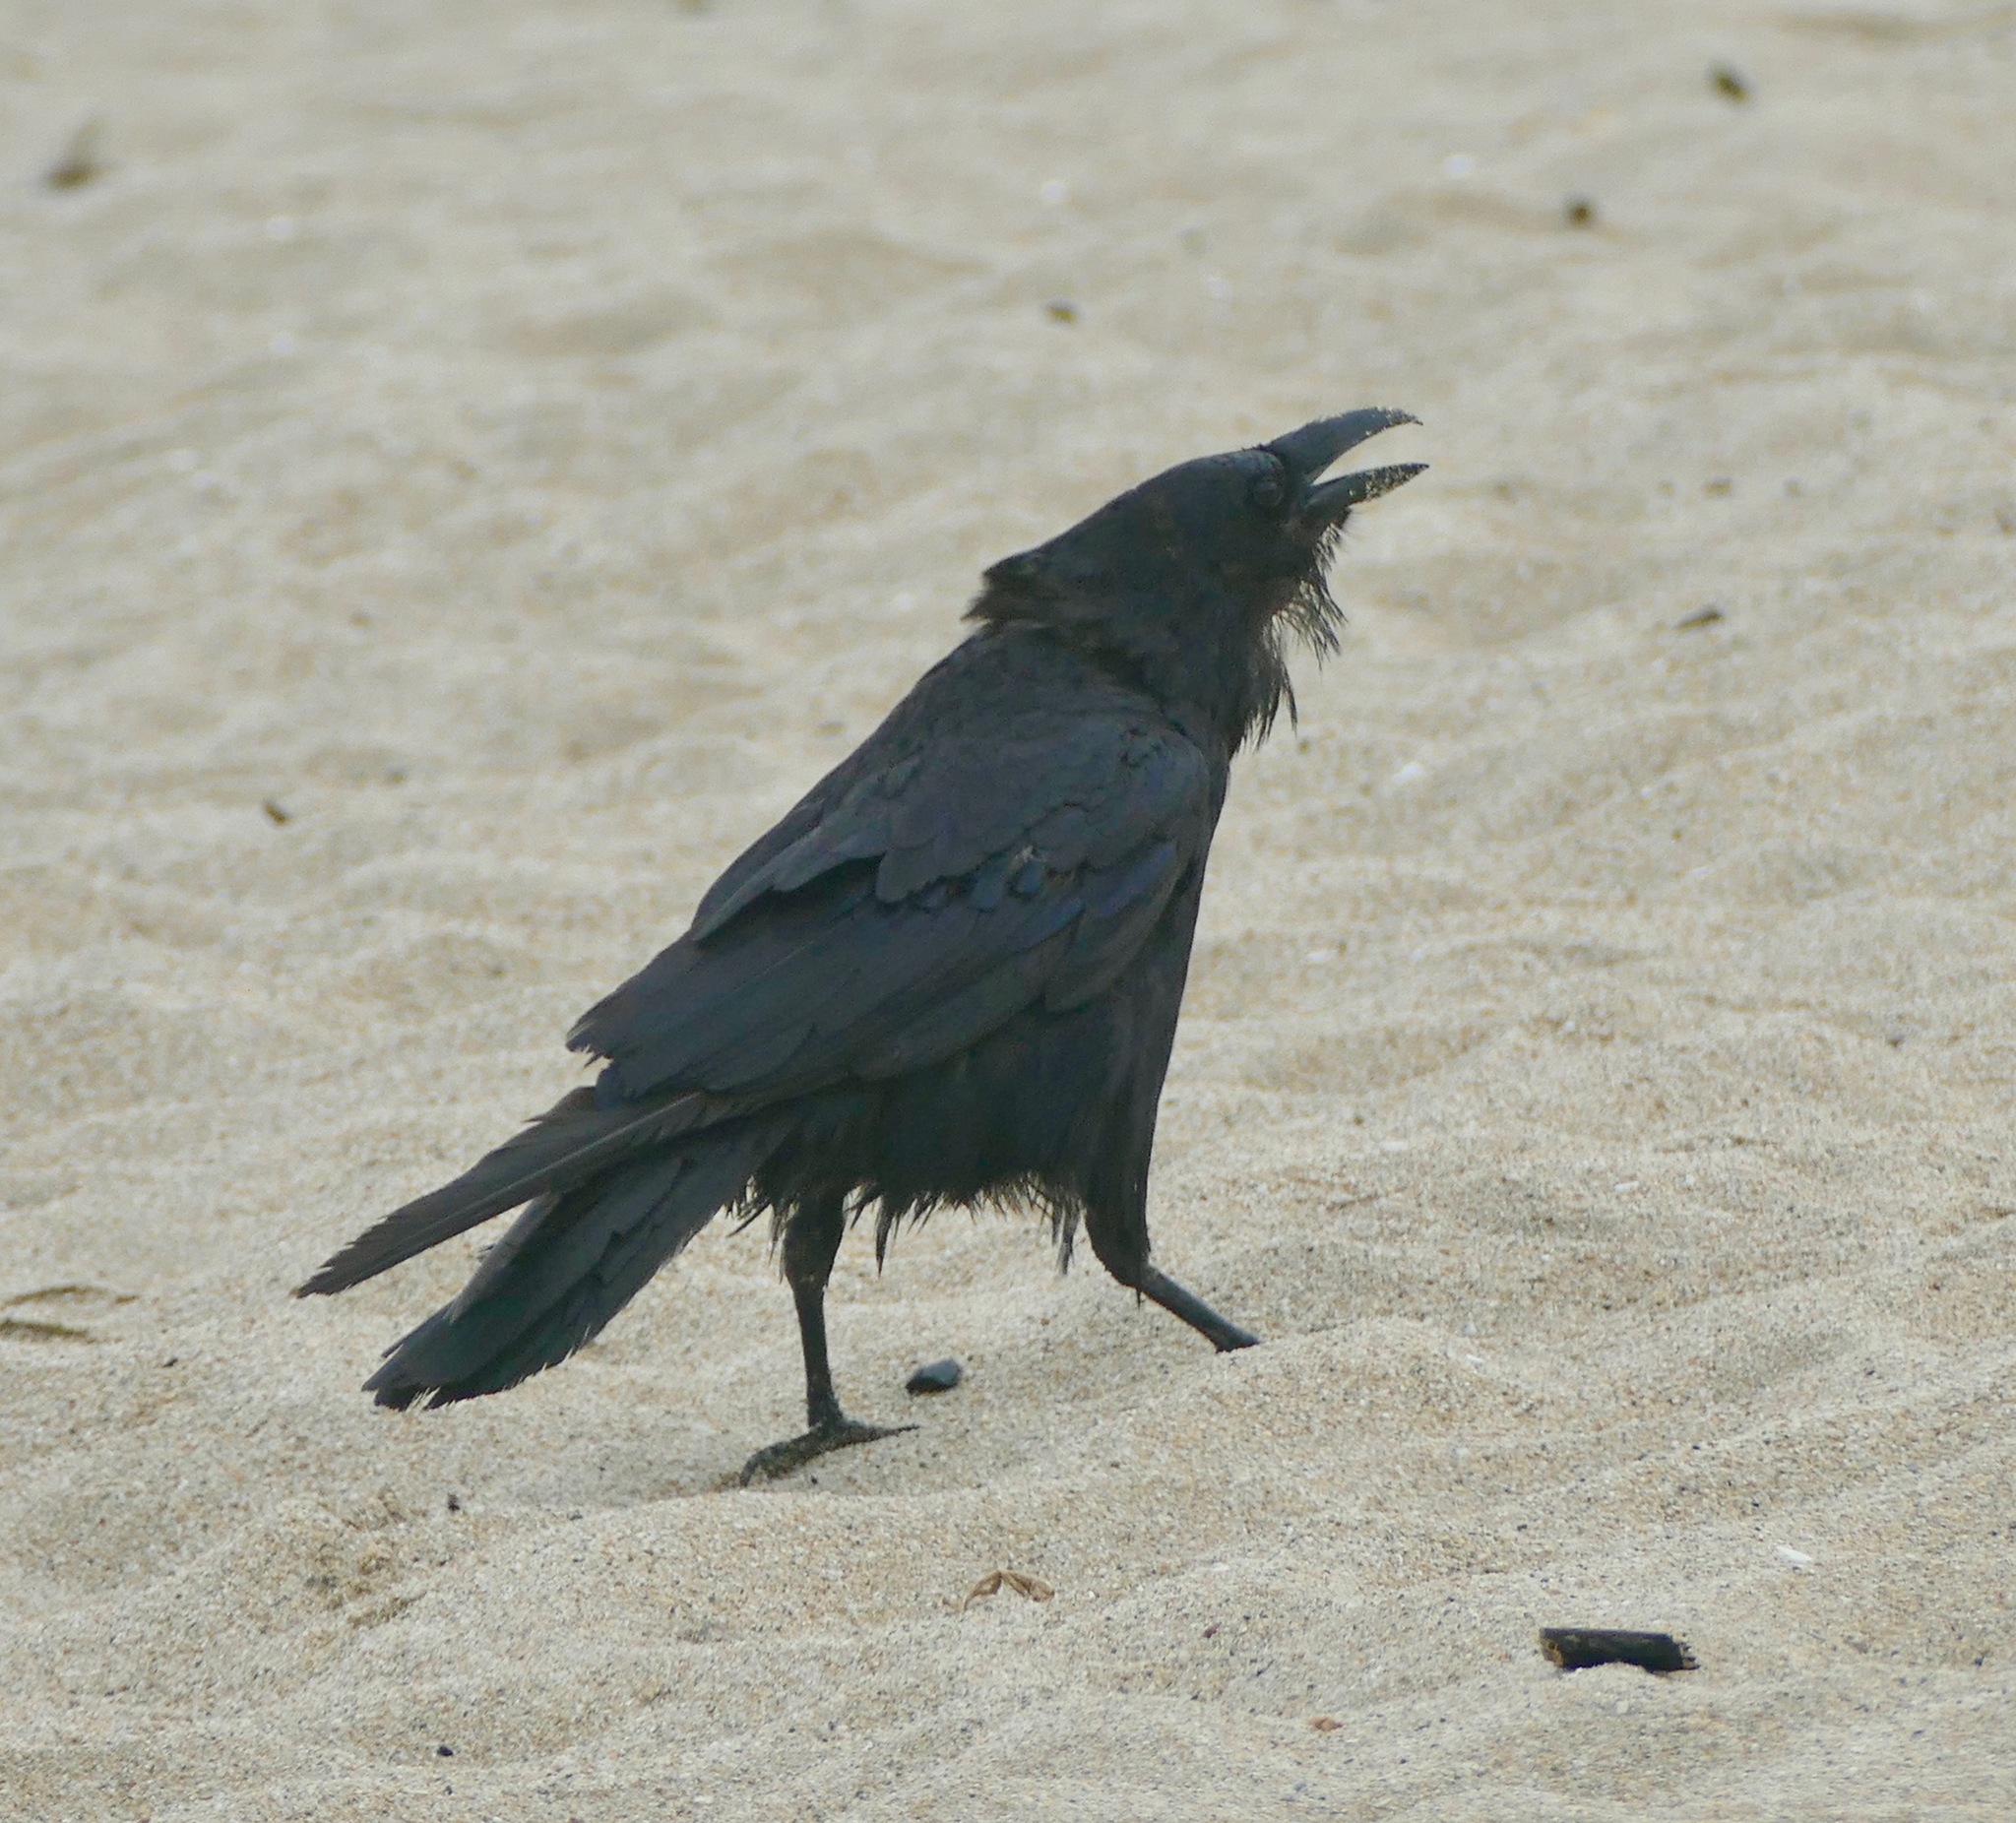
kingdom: Animalia
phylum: Chordata
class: Aves
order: Passeriformes
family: Corvidae
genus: Corvus
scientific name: Corvus corax
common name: Common raven
